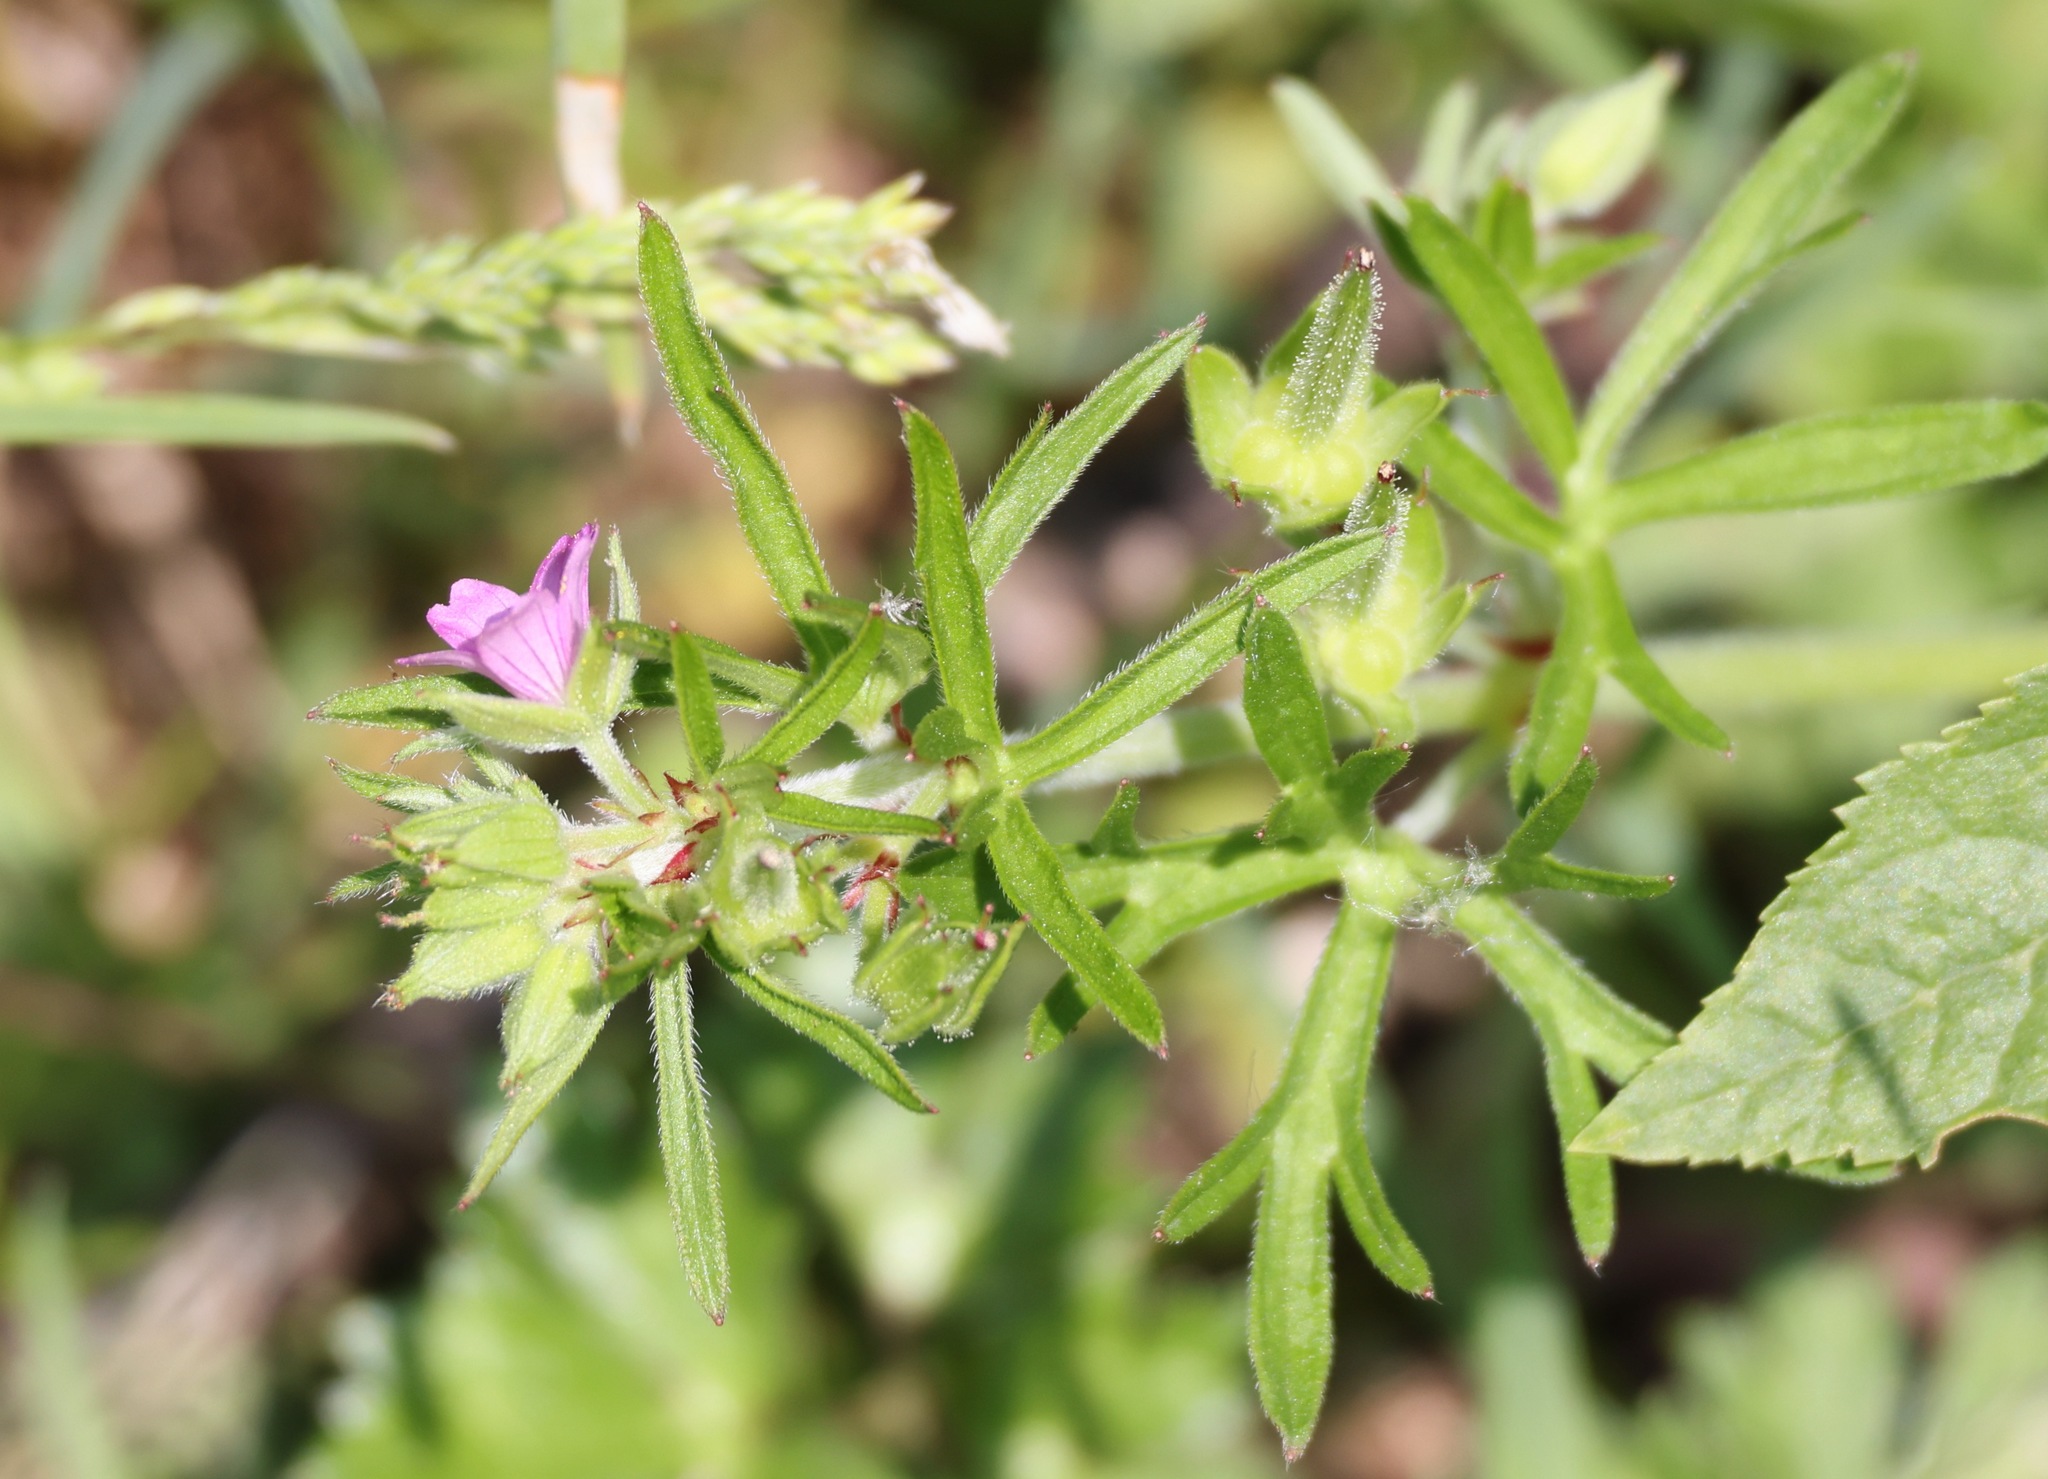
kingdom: Plantae
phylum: Tracheophyta
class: Magnoliopsida
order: Geraniales
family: Geraniaceae
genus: Geranium
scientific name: Geranium dissectum
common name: Cut-leaved crane's-bill
